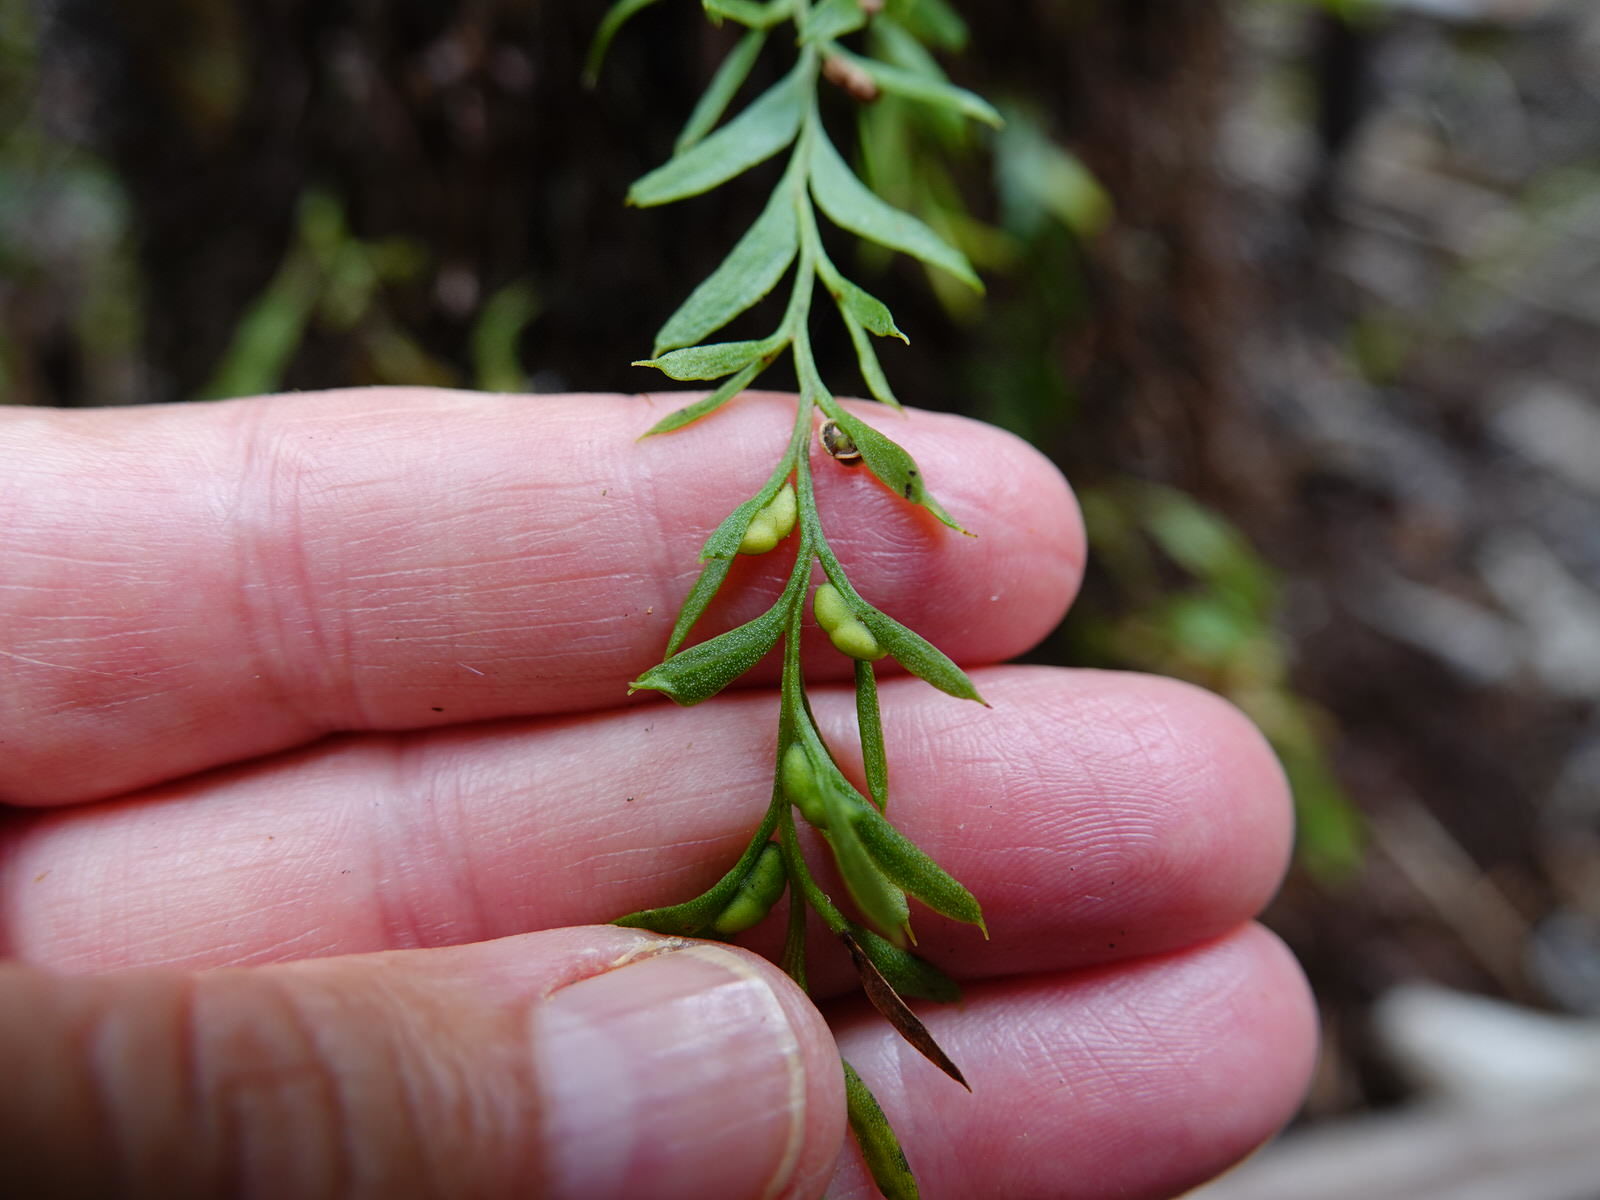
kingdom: Plantae
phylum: Tracheophyta
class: Polypodiopsida
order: Psilotales
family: Psilotaceae
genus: Tmesipteris
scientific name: Tmesipteris elongata
